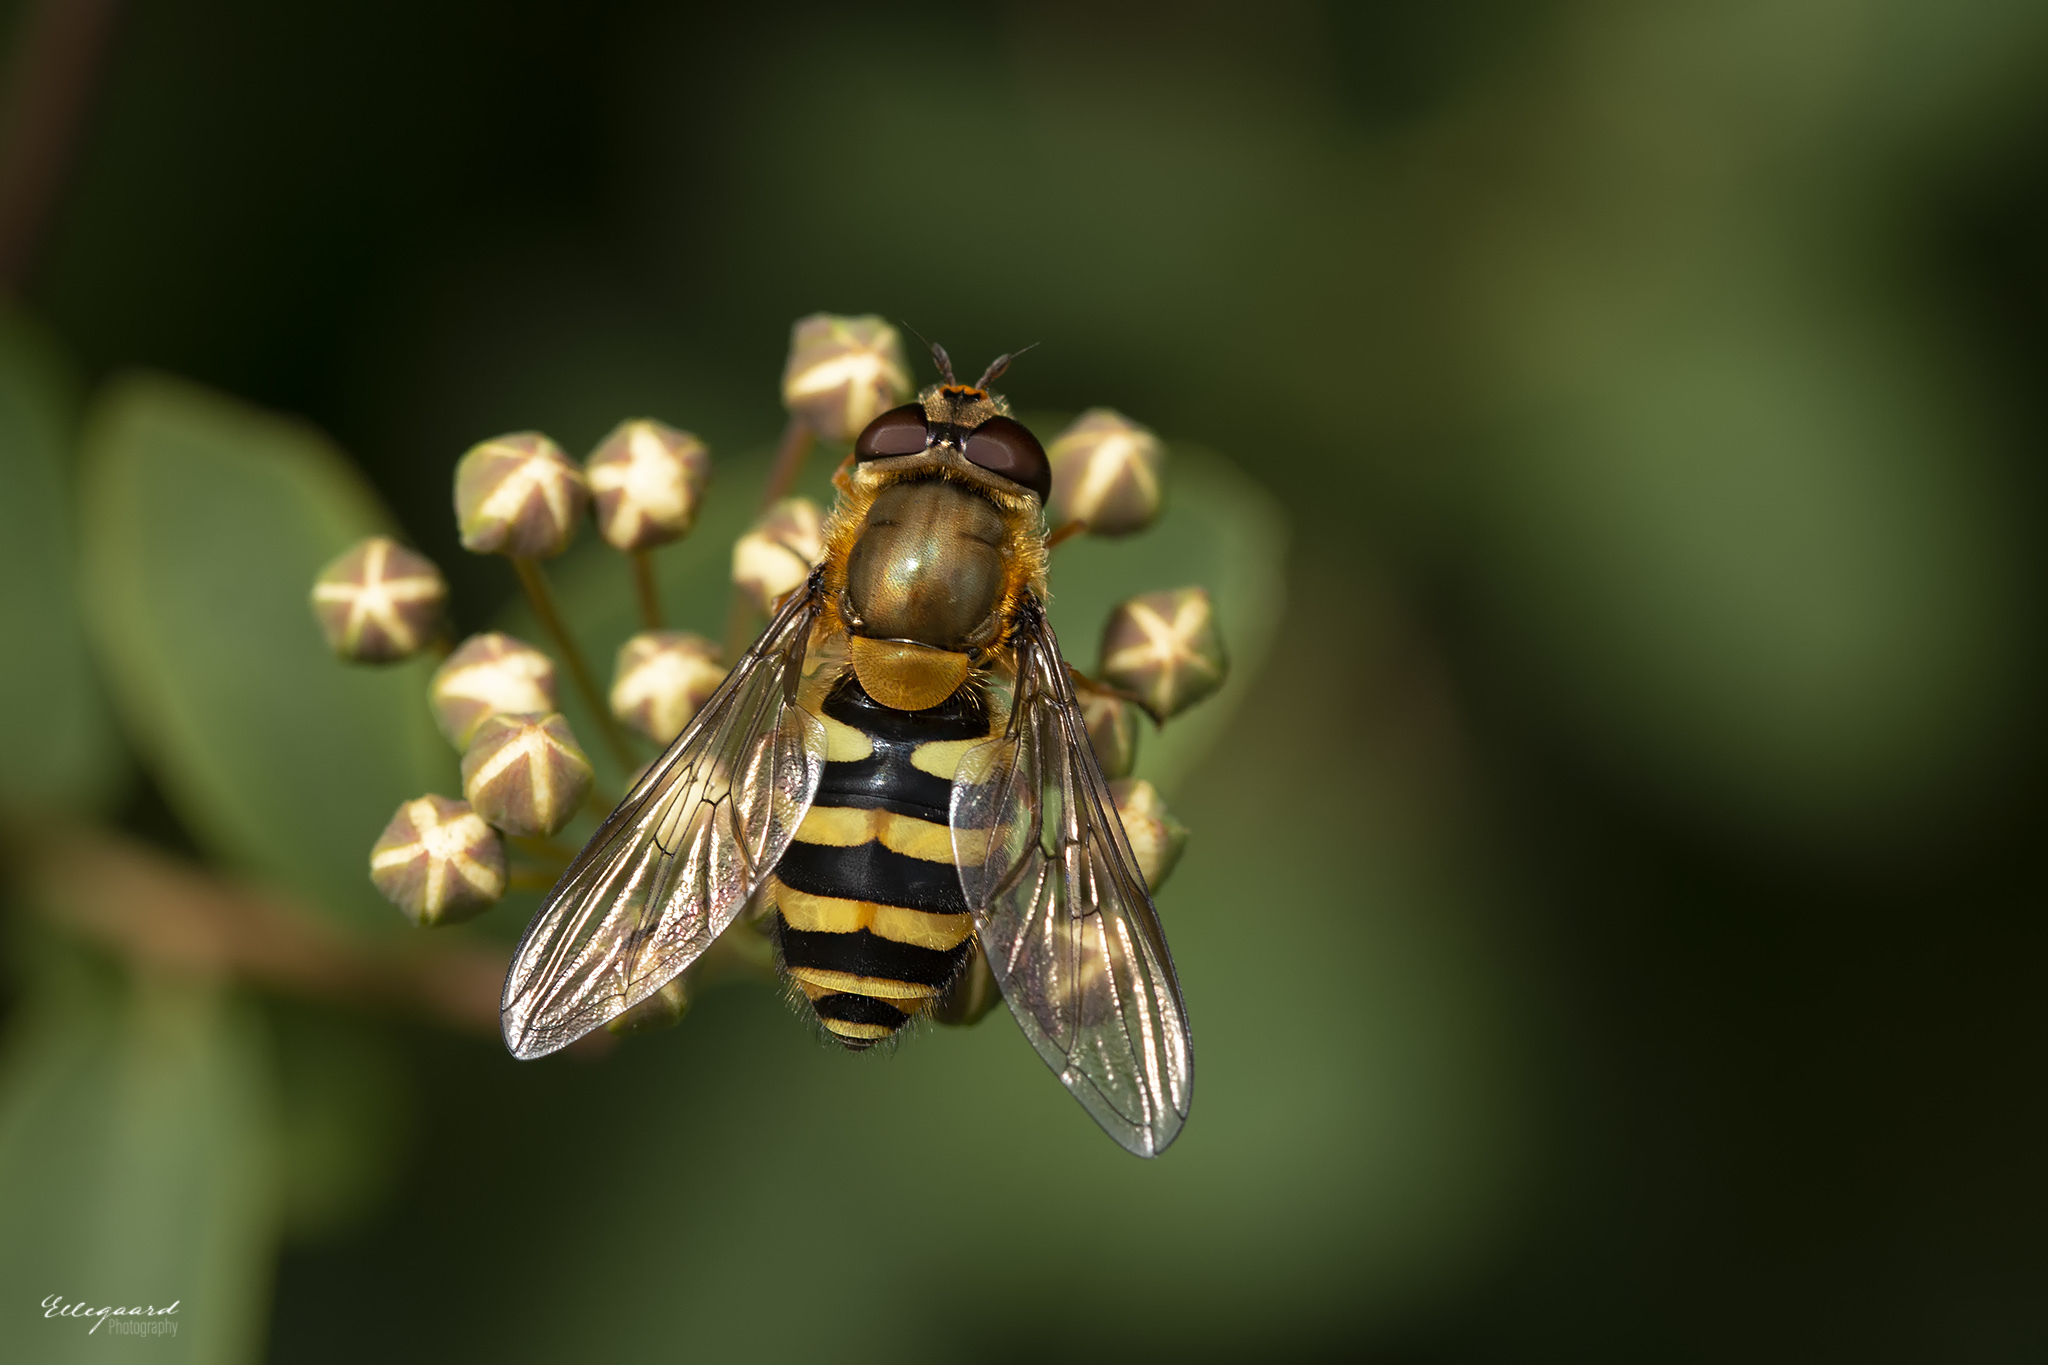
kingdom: Animalia
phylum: Arthropoda
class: Insecta
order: Diptera
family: Syrphidae
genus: Syrphus
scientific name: Syrphus
